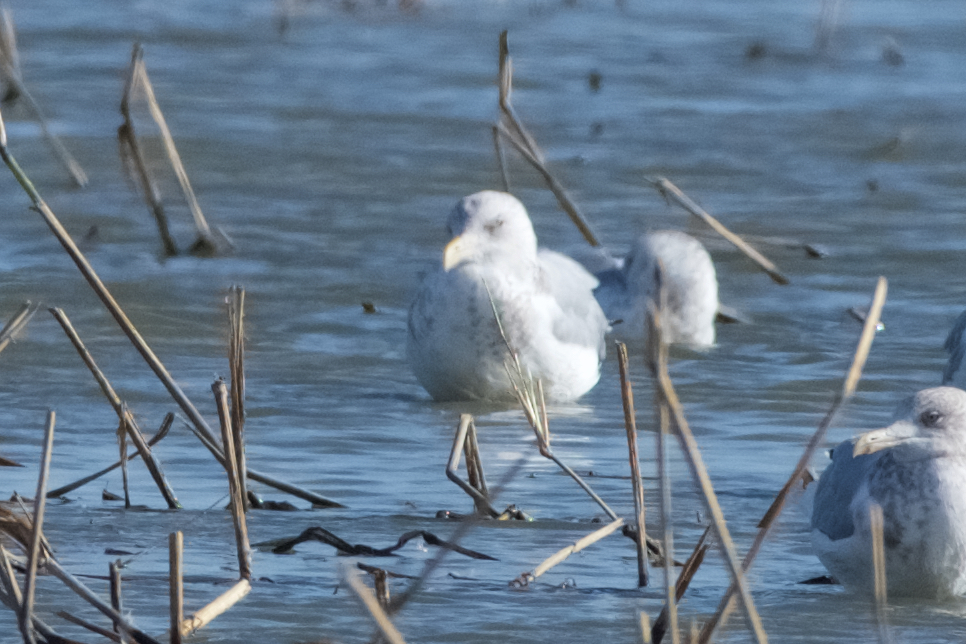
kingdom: Animalia
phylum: Chordata
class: Aves
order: Charadriiformes
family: Laridae
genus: Larus
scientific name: Larus argentatus
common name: Herring gull
